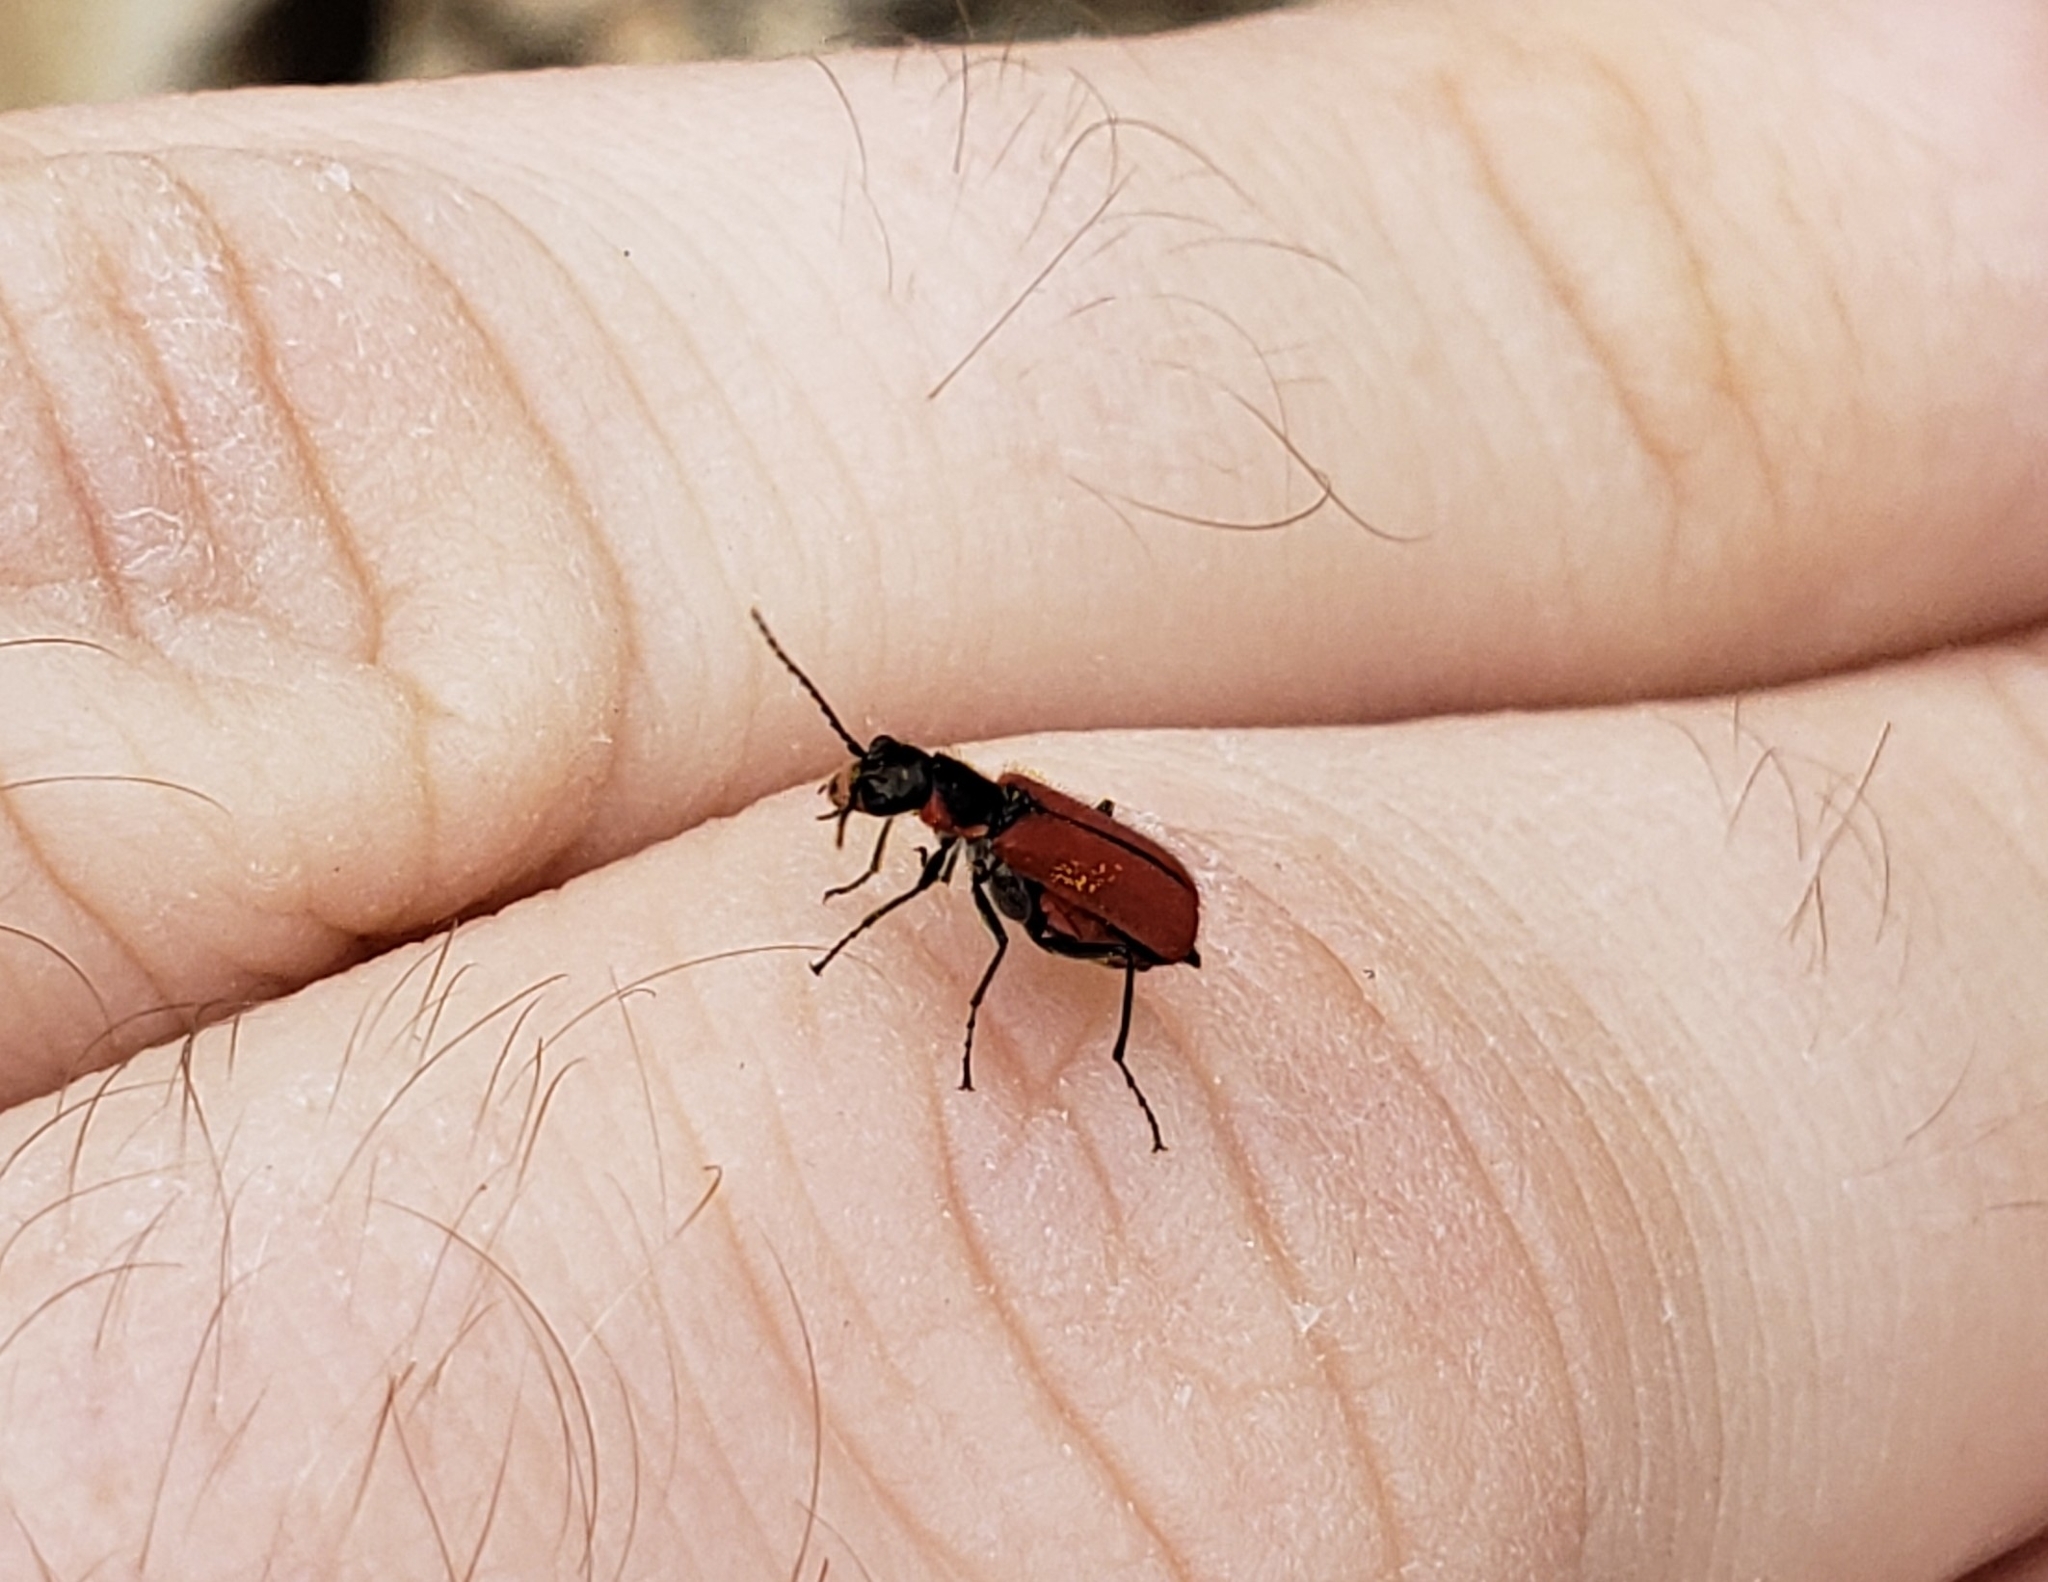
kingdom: Animalia
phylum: Arthropoda
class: Insecta
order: Coleoptera
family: Melyridae
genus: Malachius
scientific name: Malachius coccineus
